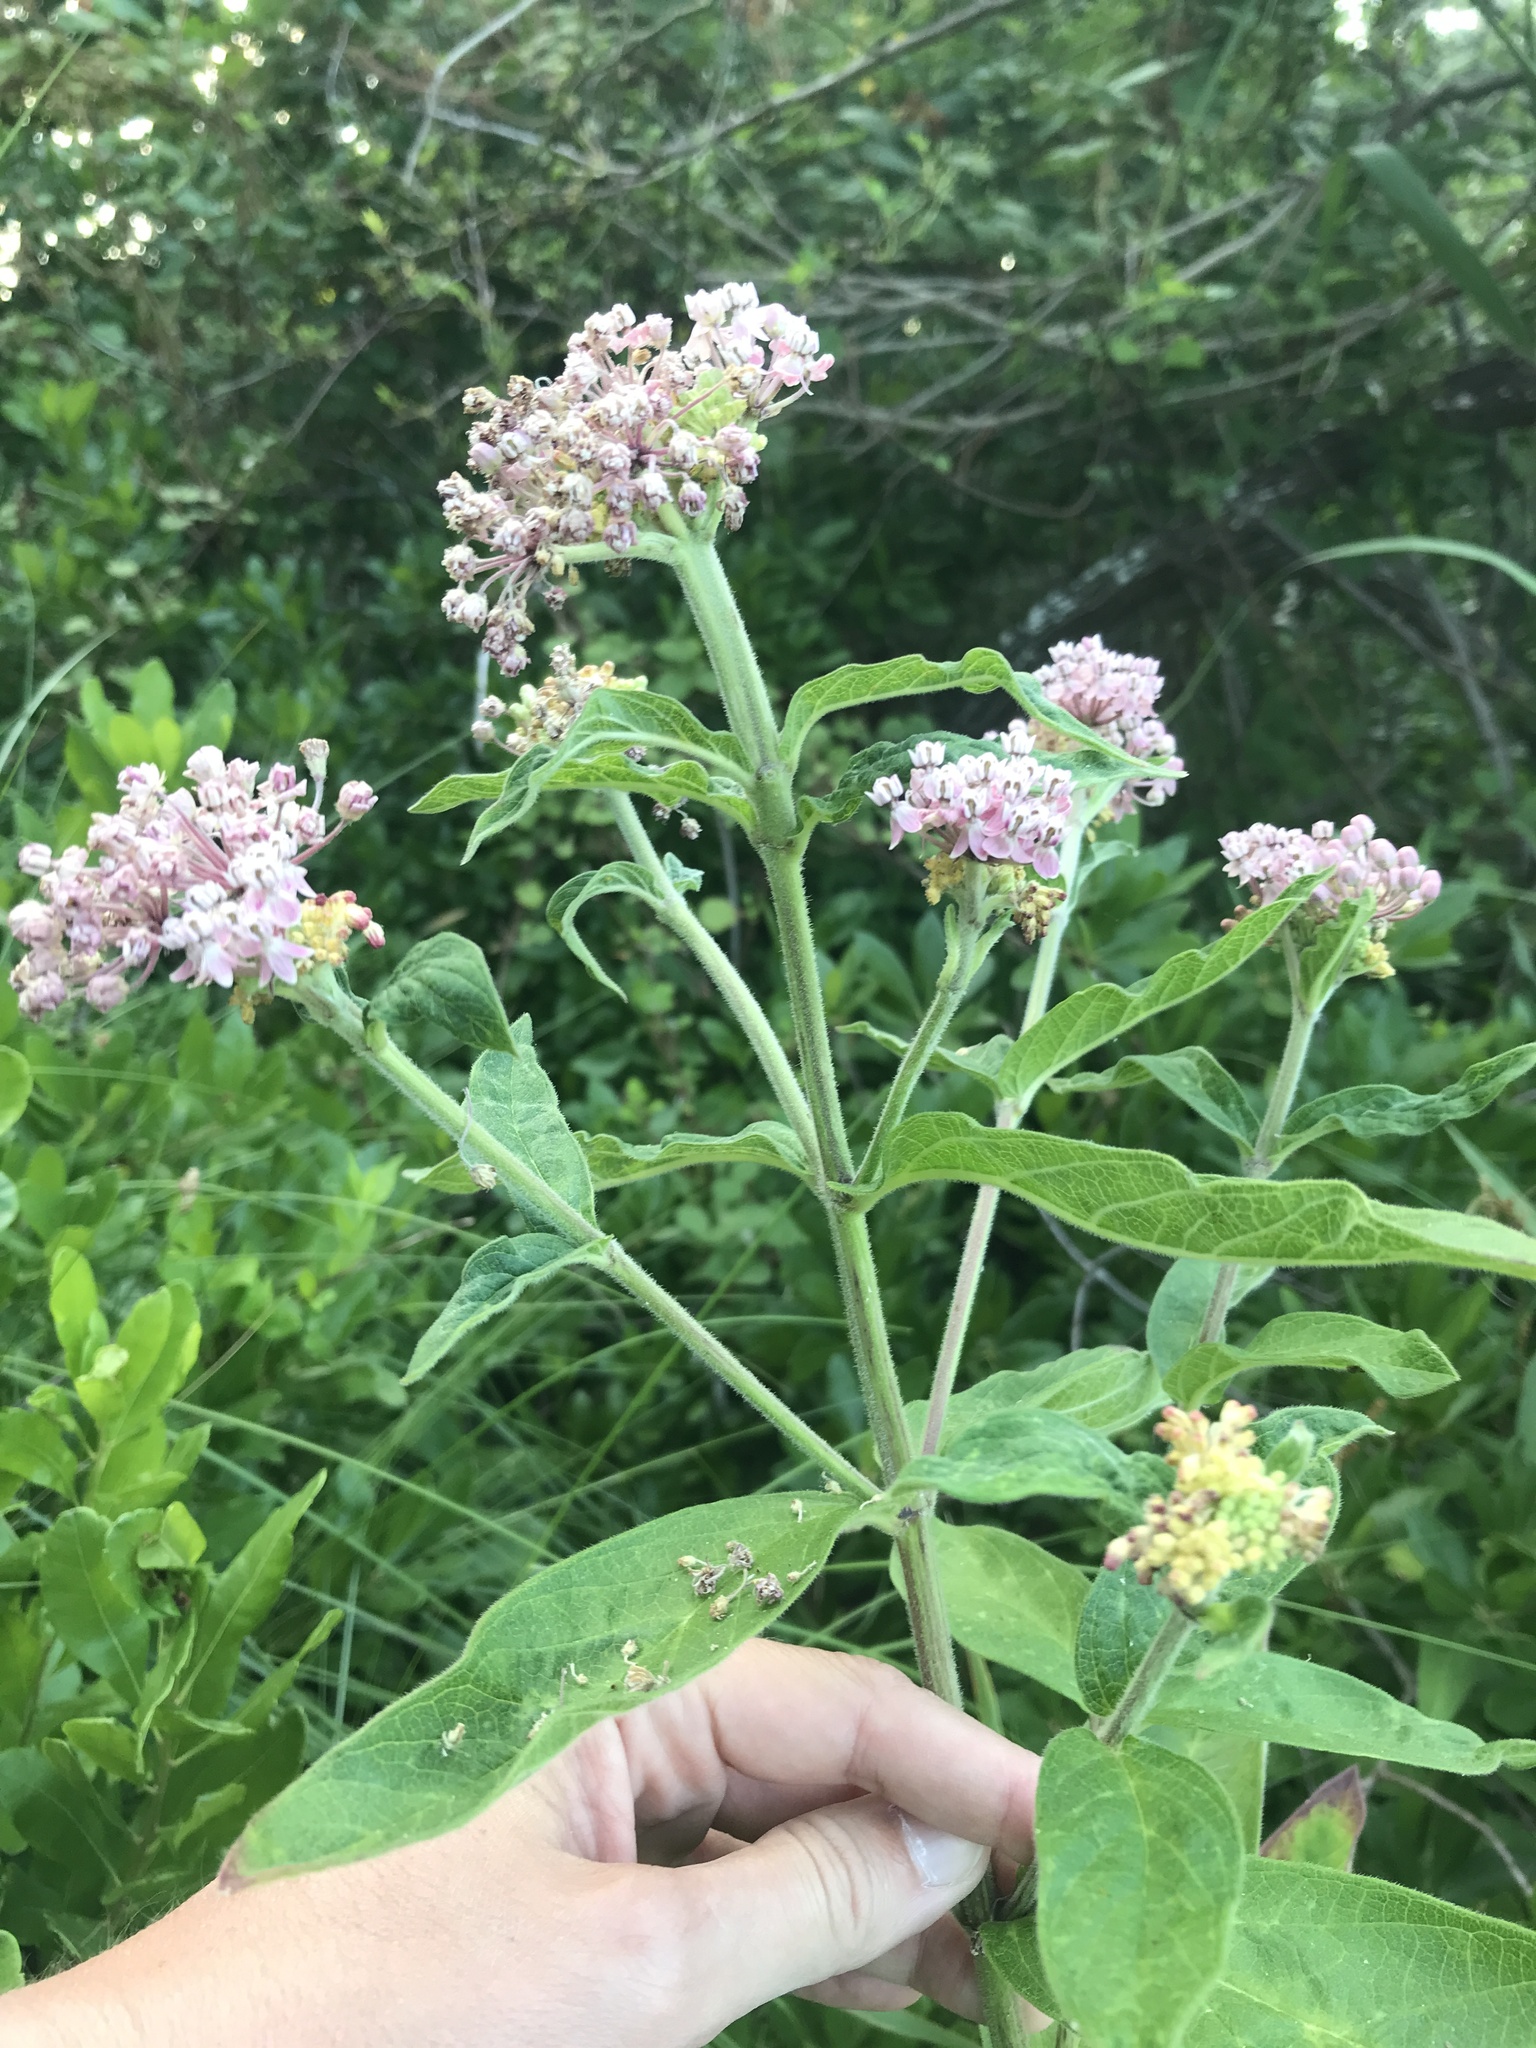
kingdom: Plantae
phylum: Tracheophyta
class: Magnoliopsida
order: Gentianales
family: Apocynaceae
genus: Asclepias
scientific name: Asclepias incarnata
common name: Swamp milkweed
